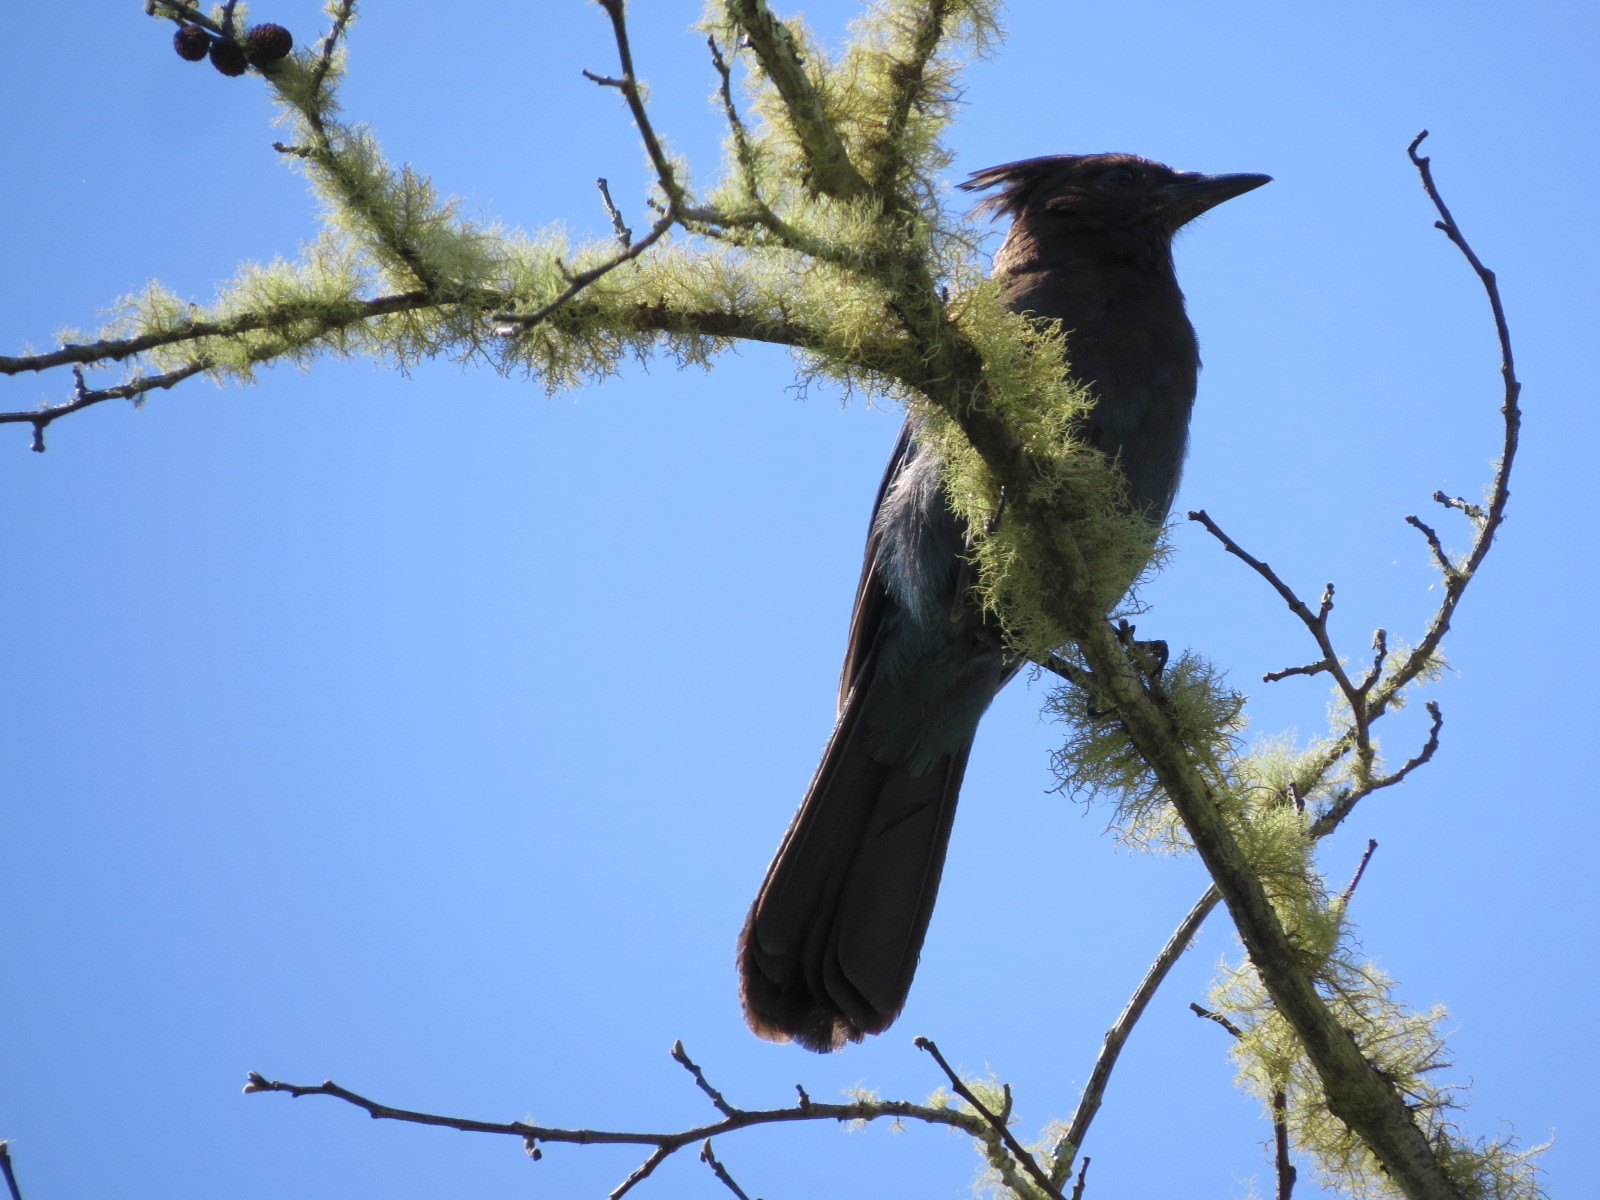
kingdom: Animalia
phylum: Chordata
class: Aves
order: Passeriformes
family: Corvidae
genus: Cyanocitta
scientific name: Cyanocitta stelleri
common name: Steller's jay
